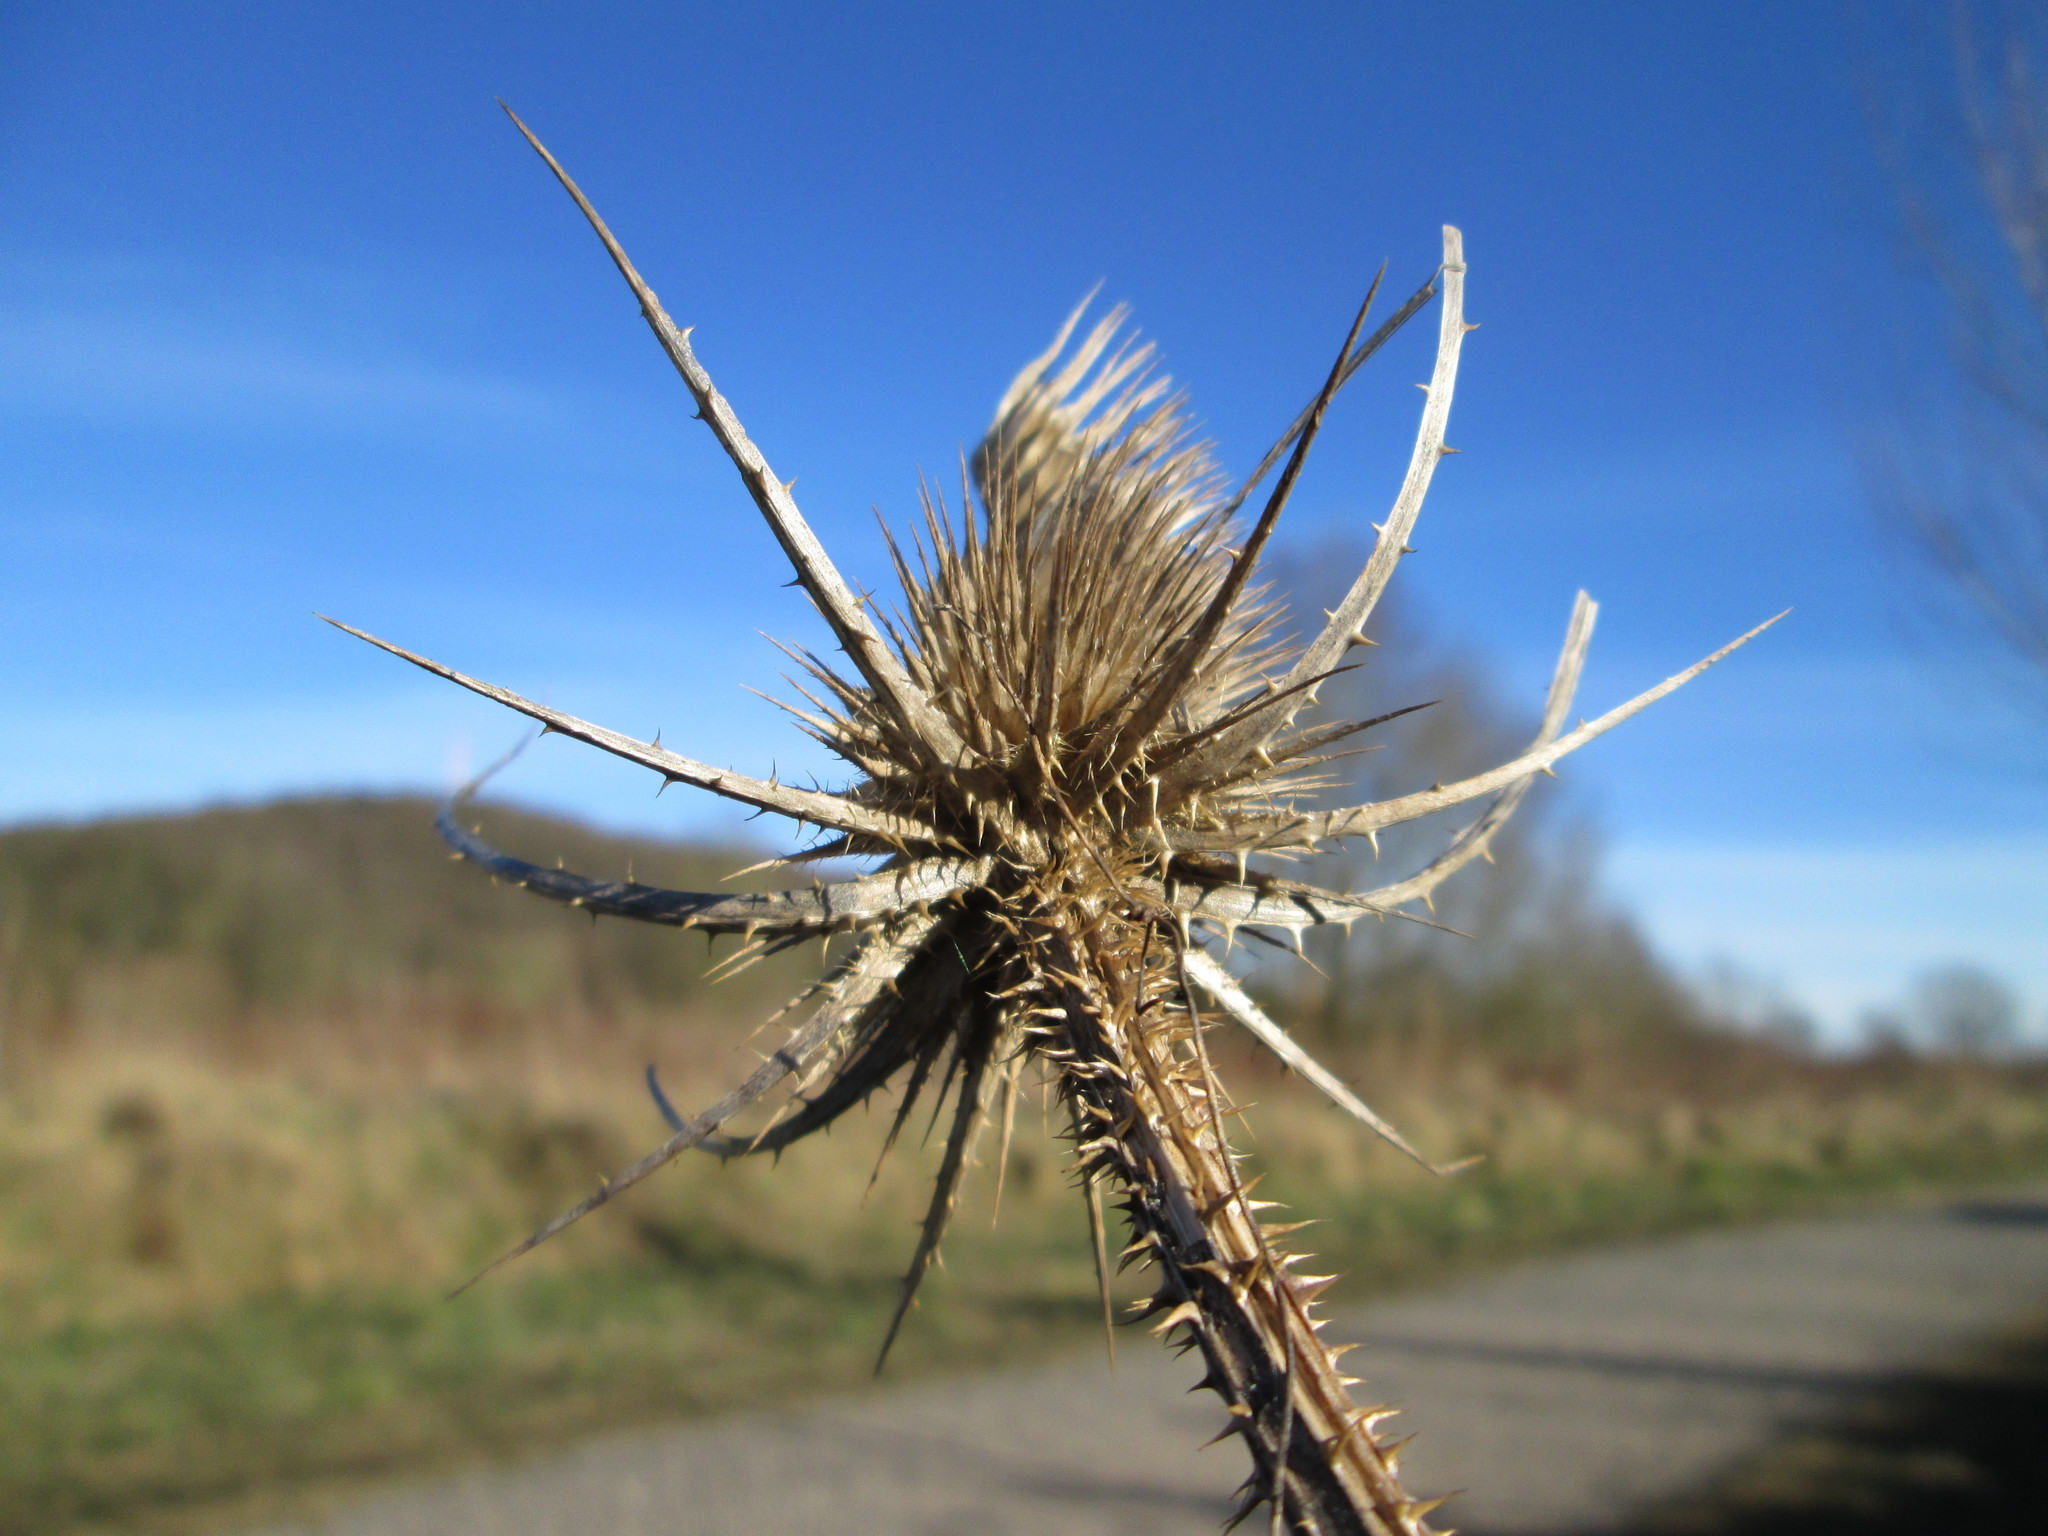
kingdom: Plantae
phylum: Tracheophyta
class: Magnoliopsida
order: Dipsacales
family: Caprifoliaceae
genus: Dipsacus
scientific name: Dipsacus fullonum
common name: Teasel
